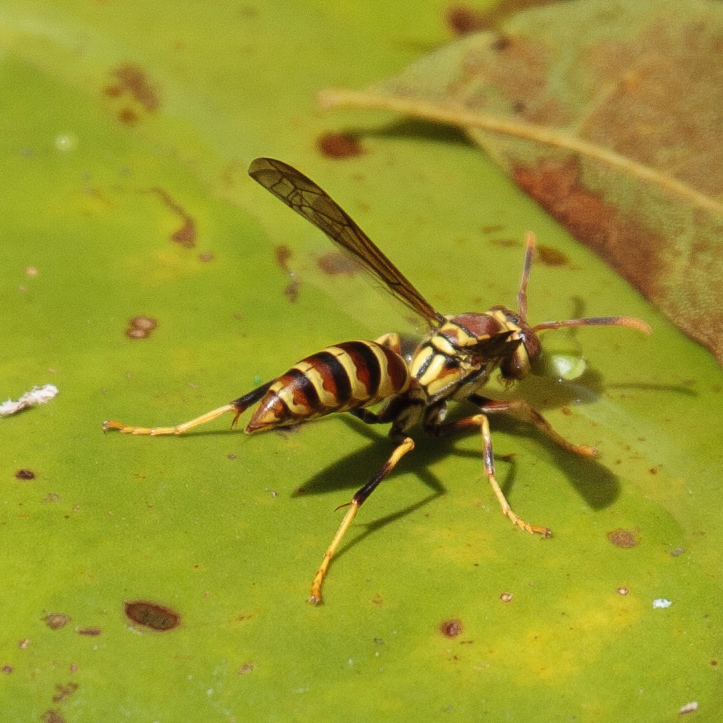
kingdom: Animalia
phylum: Arthropoda
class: Insecta
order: Hymenoptera
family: Eumenidae
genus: Polistes
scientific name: Polistes exclamans
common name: Paper wasp
